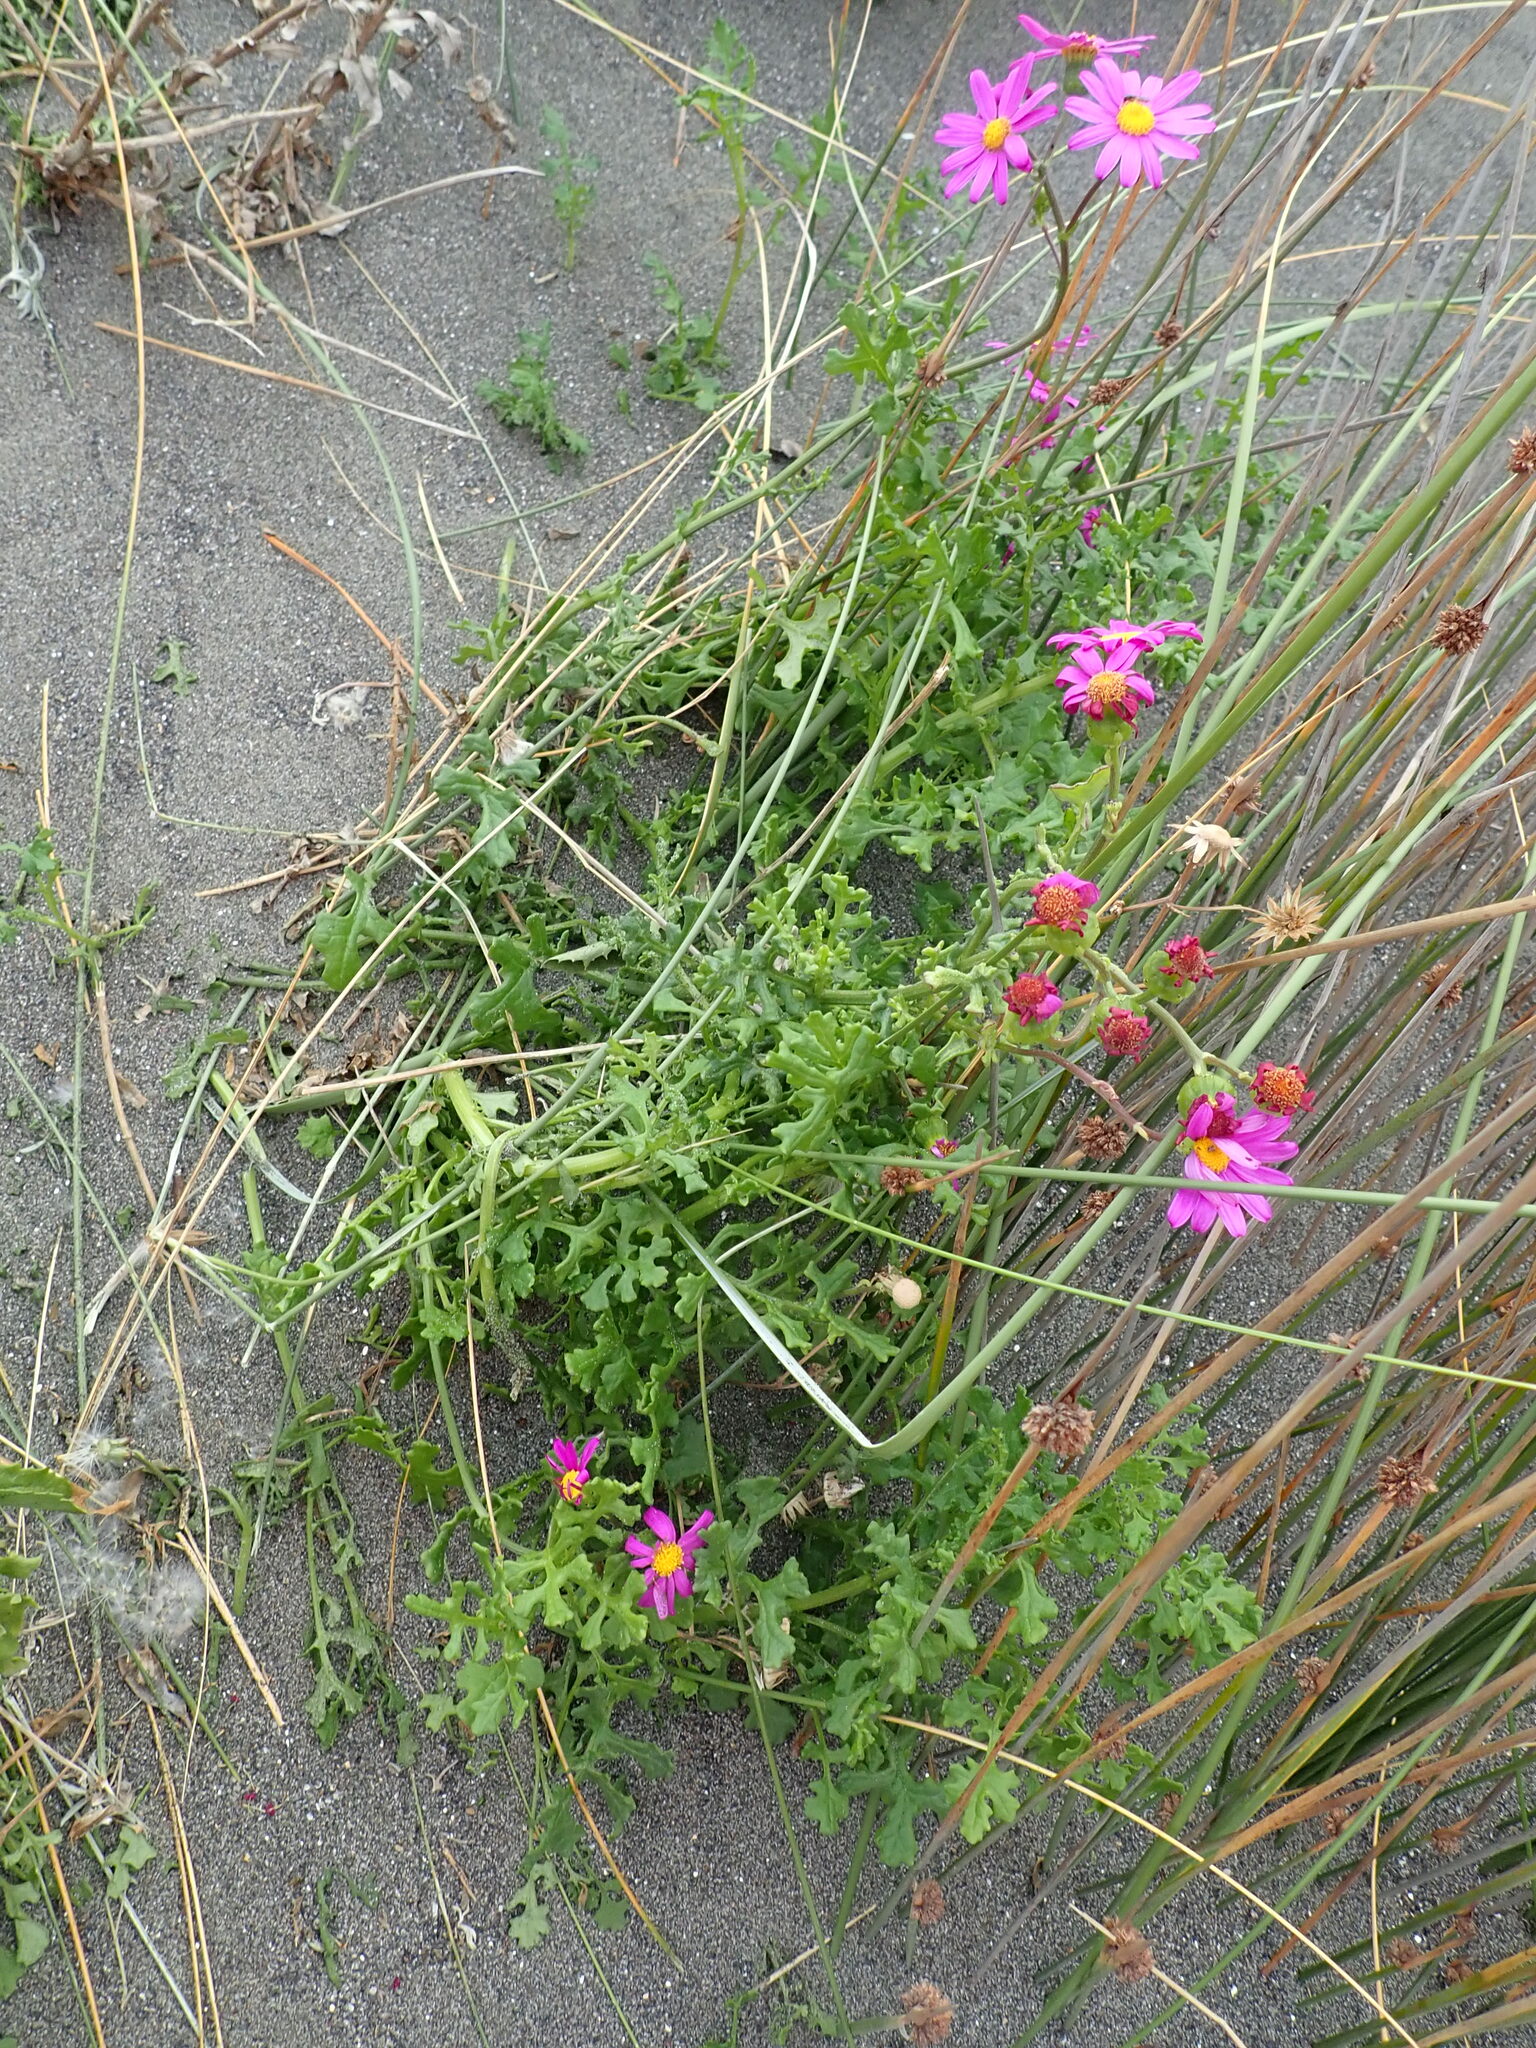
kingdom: Plantae
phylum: Tracheophyta
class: Magnoliopsida
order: Asterales
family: Asteraceae
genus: Senecio
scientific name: Senecio elegans
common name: Purple groundsel
